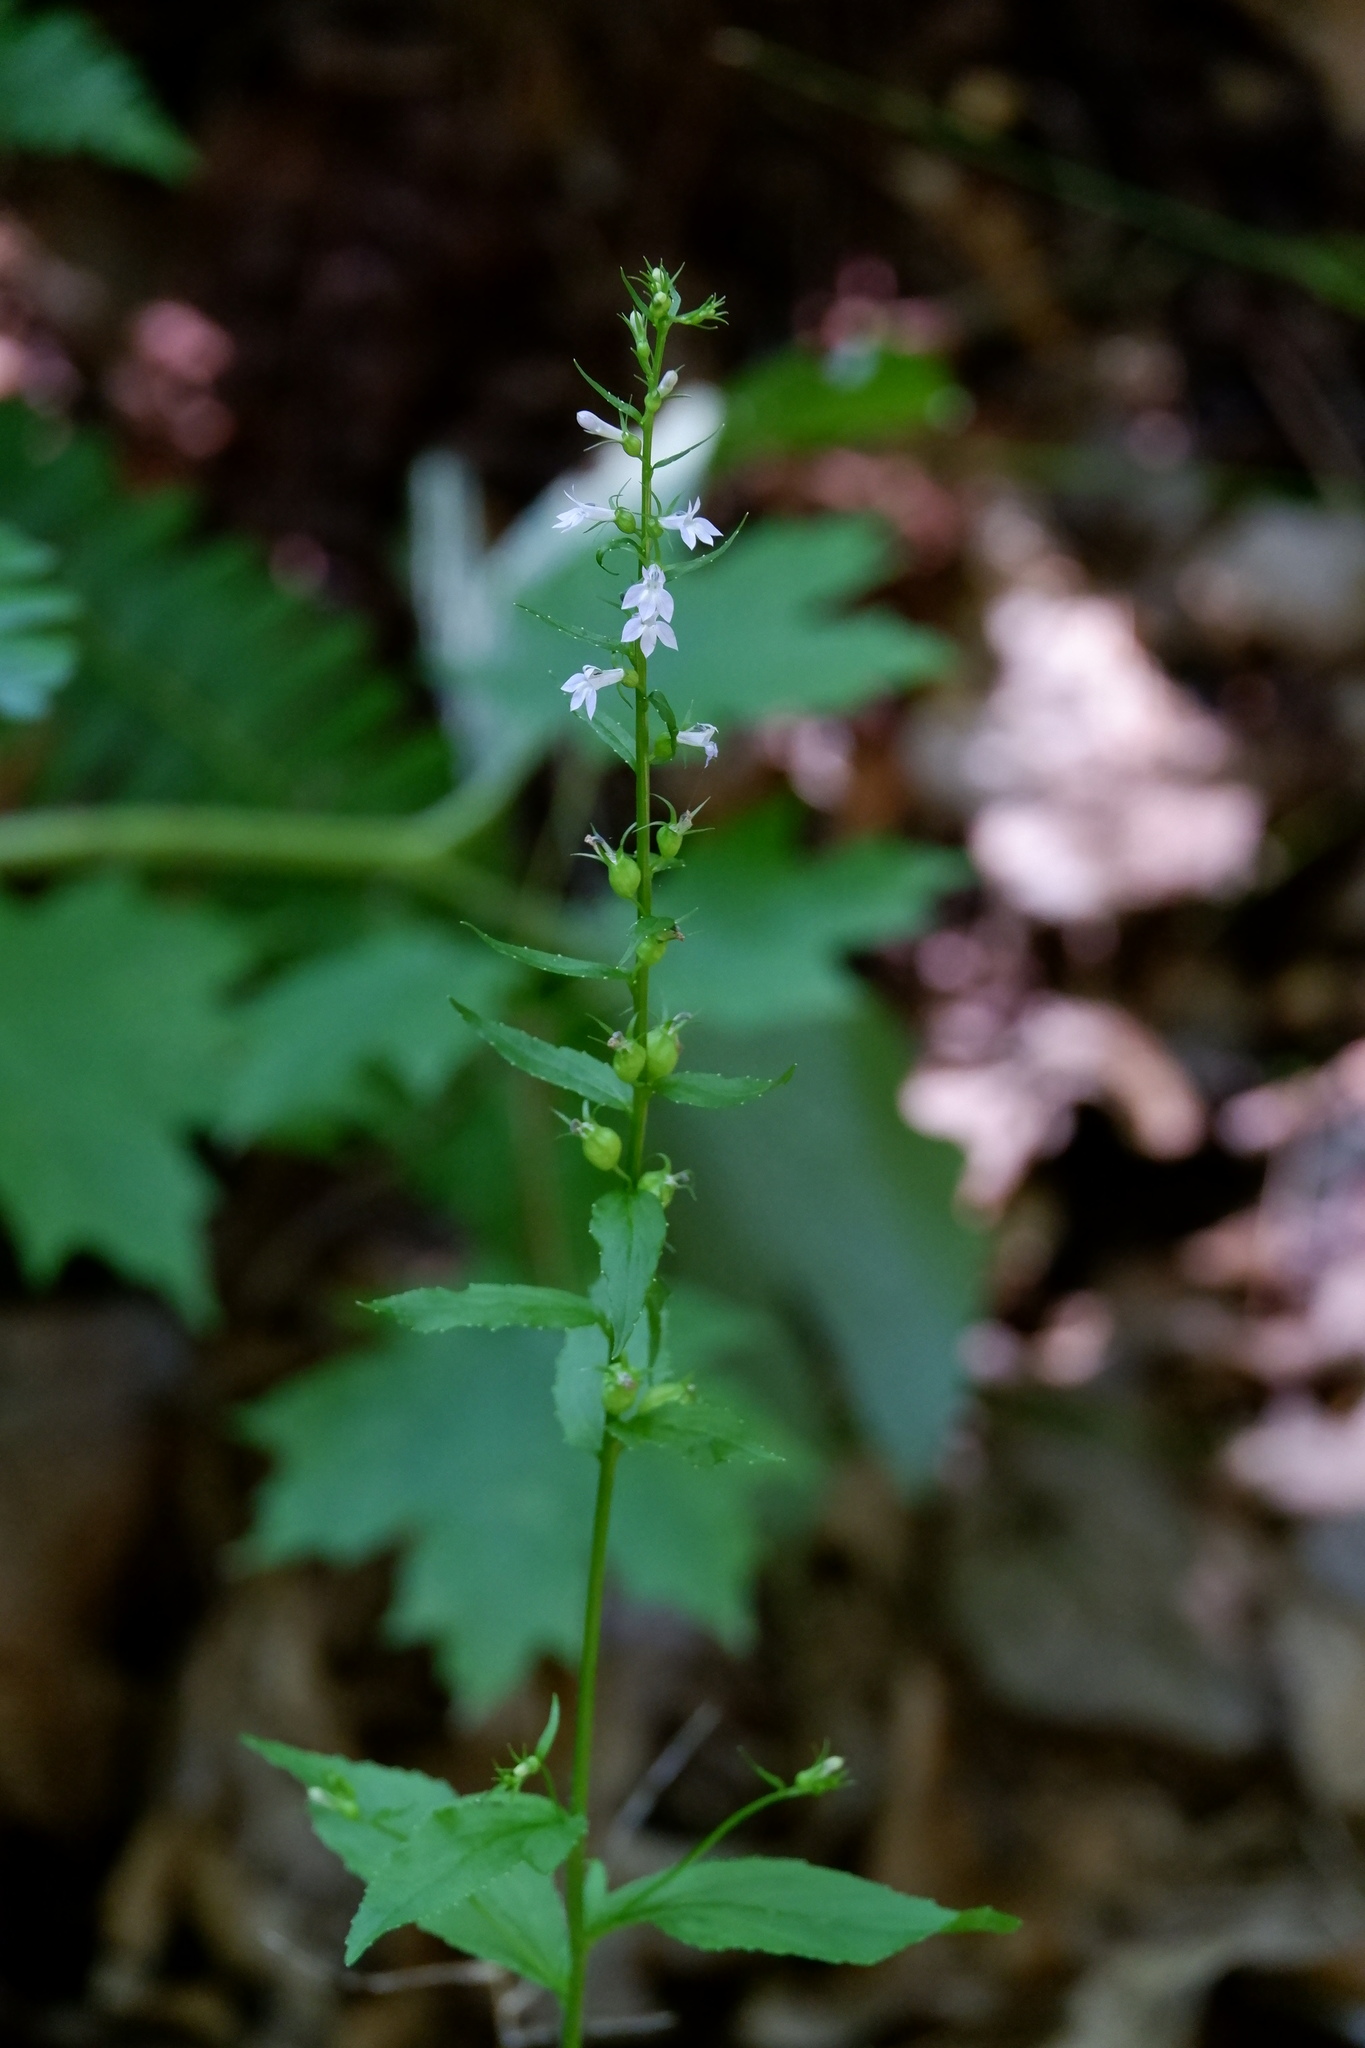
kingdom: Plantae
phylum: Tracheophyta
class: Magnoliopsida
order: Asterales
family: Campanulaceae
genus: Lobelia
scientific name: Lobelia inflata
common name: Indian tobacco
